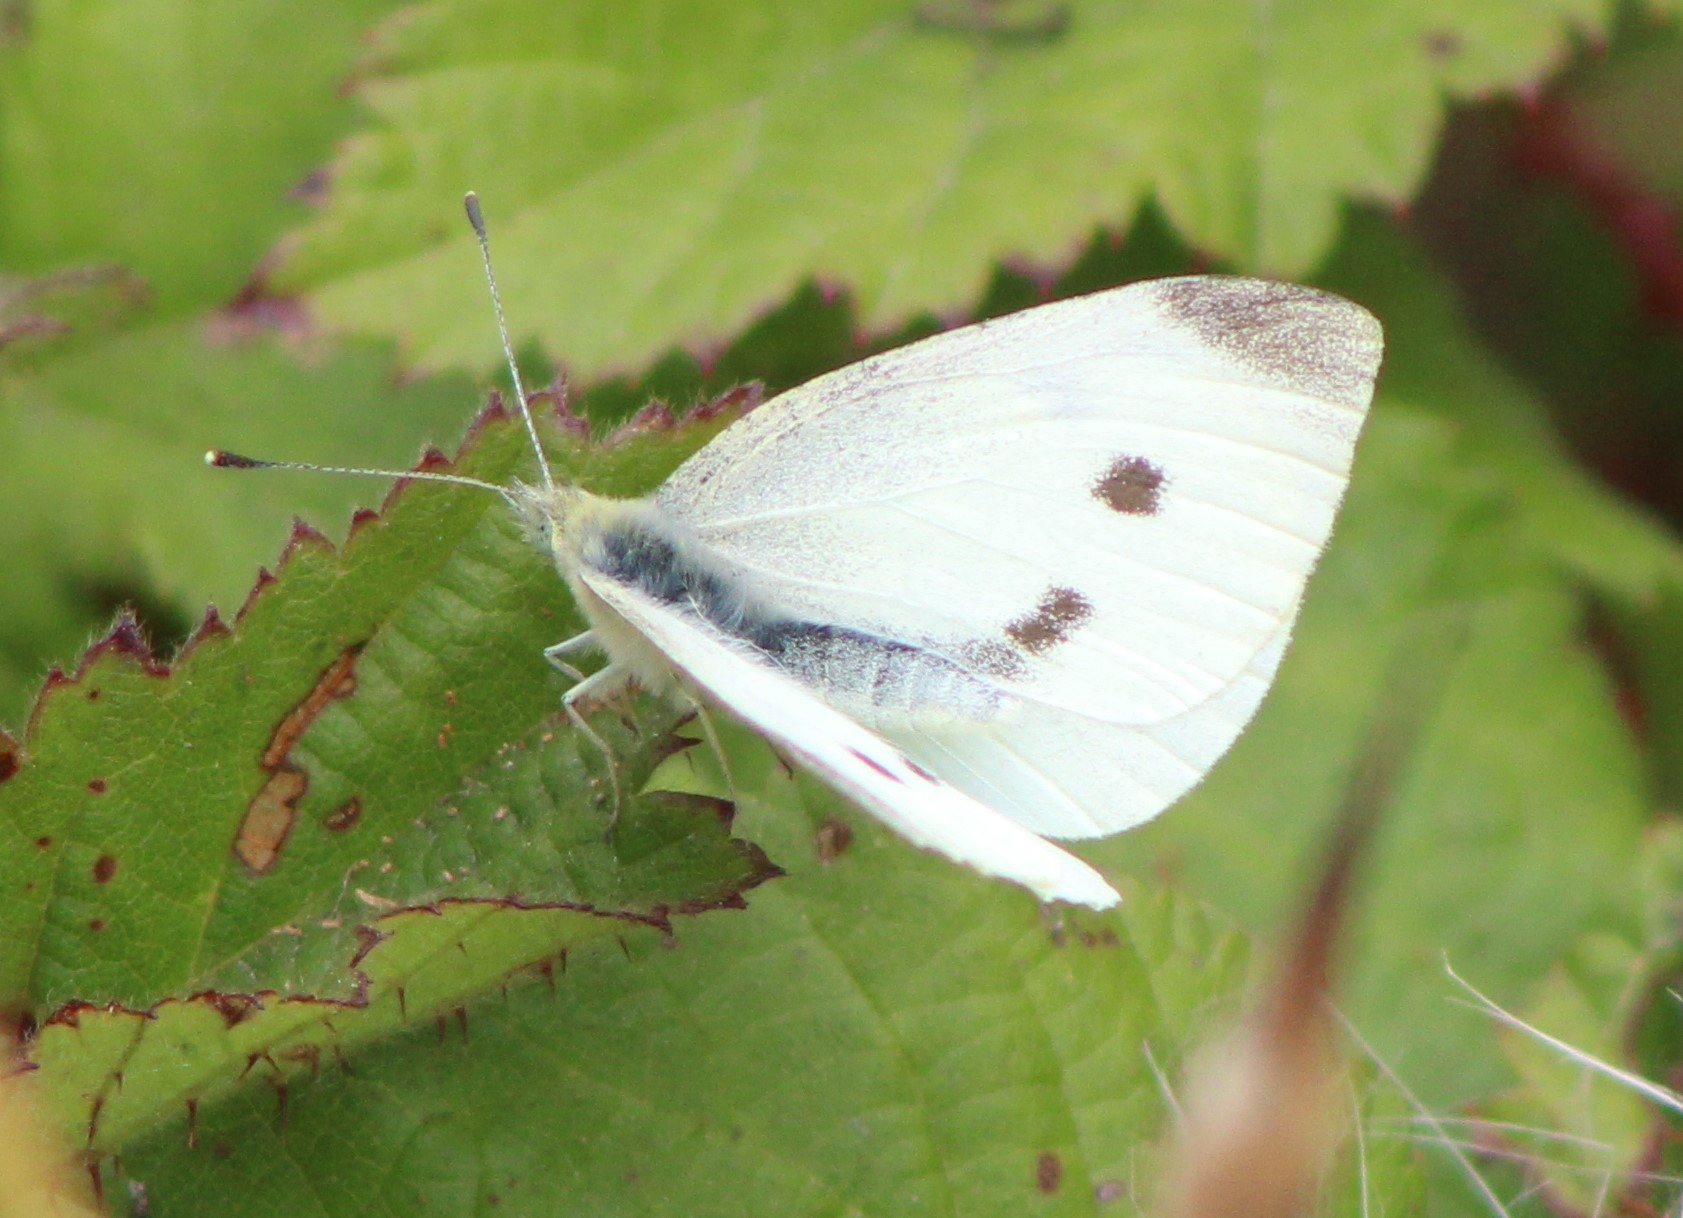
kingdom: Animalia
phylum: Arthropoda
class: Insecta
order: Lepidoptera
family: Pieridae
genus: Pieris
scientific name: Pieris rapae
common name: Small white
